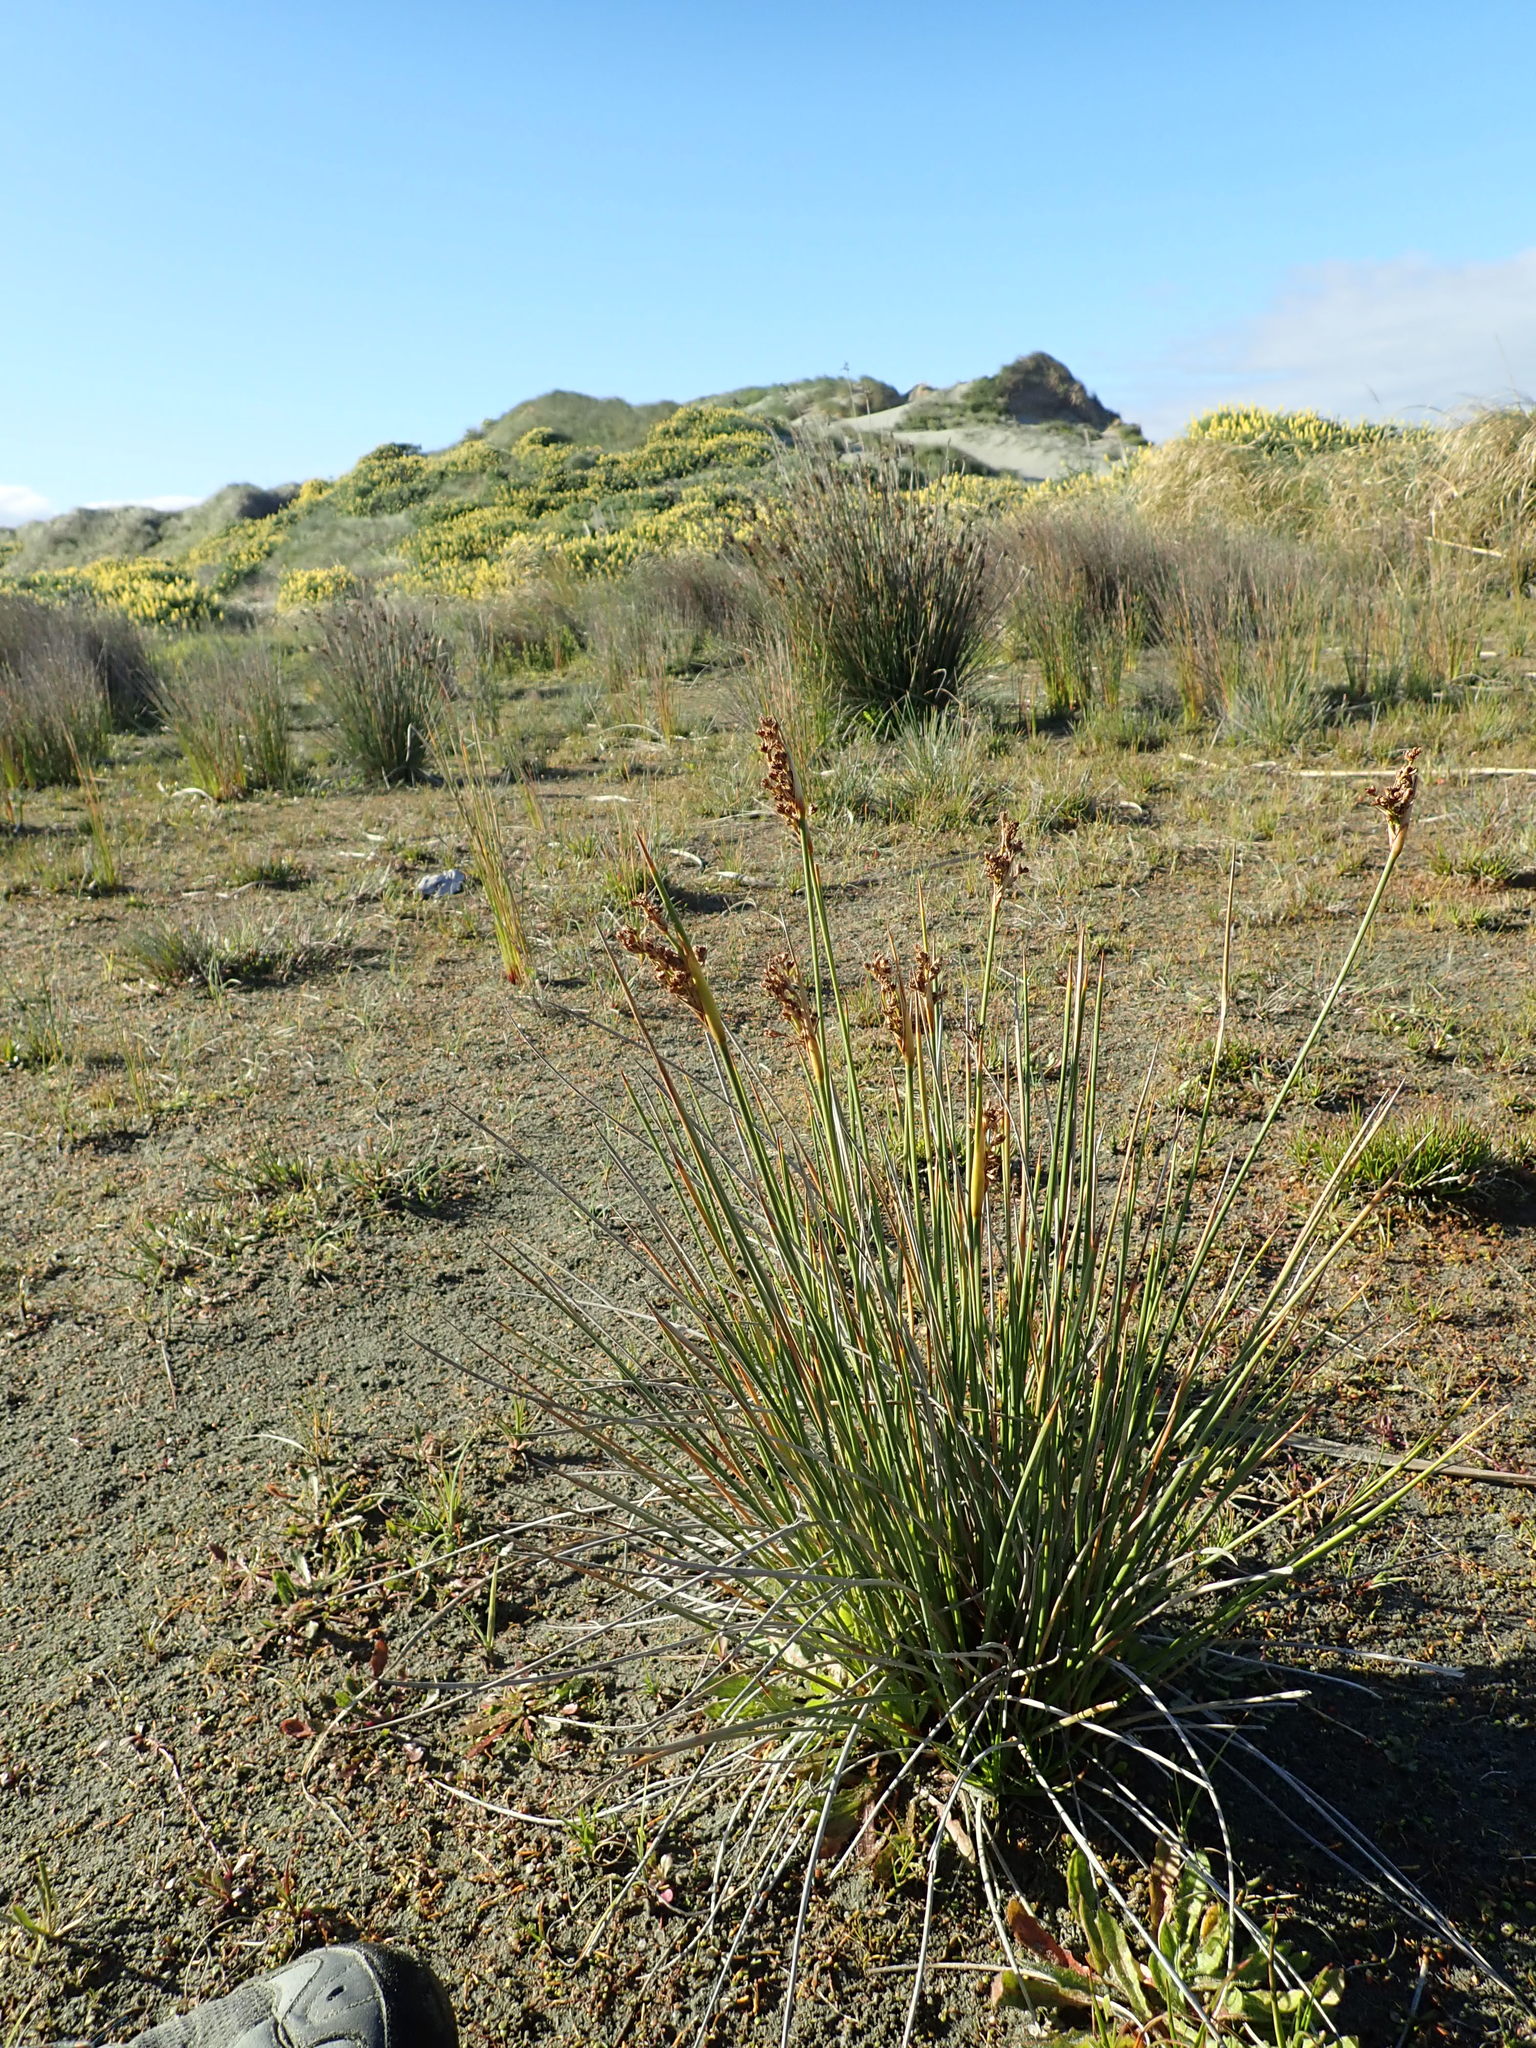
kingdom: Plantae
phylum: Tracheophyta
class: Liliopsida
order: Poales
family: Juncaceae
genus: Juncus
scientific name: Juncus acutus
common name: Sharp rush
